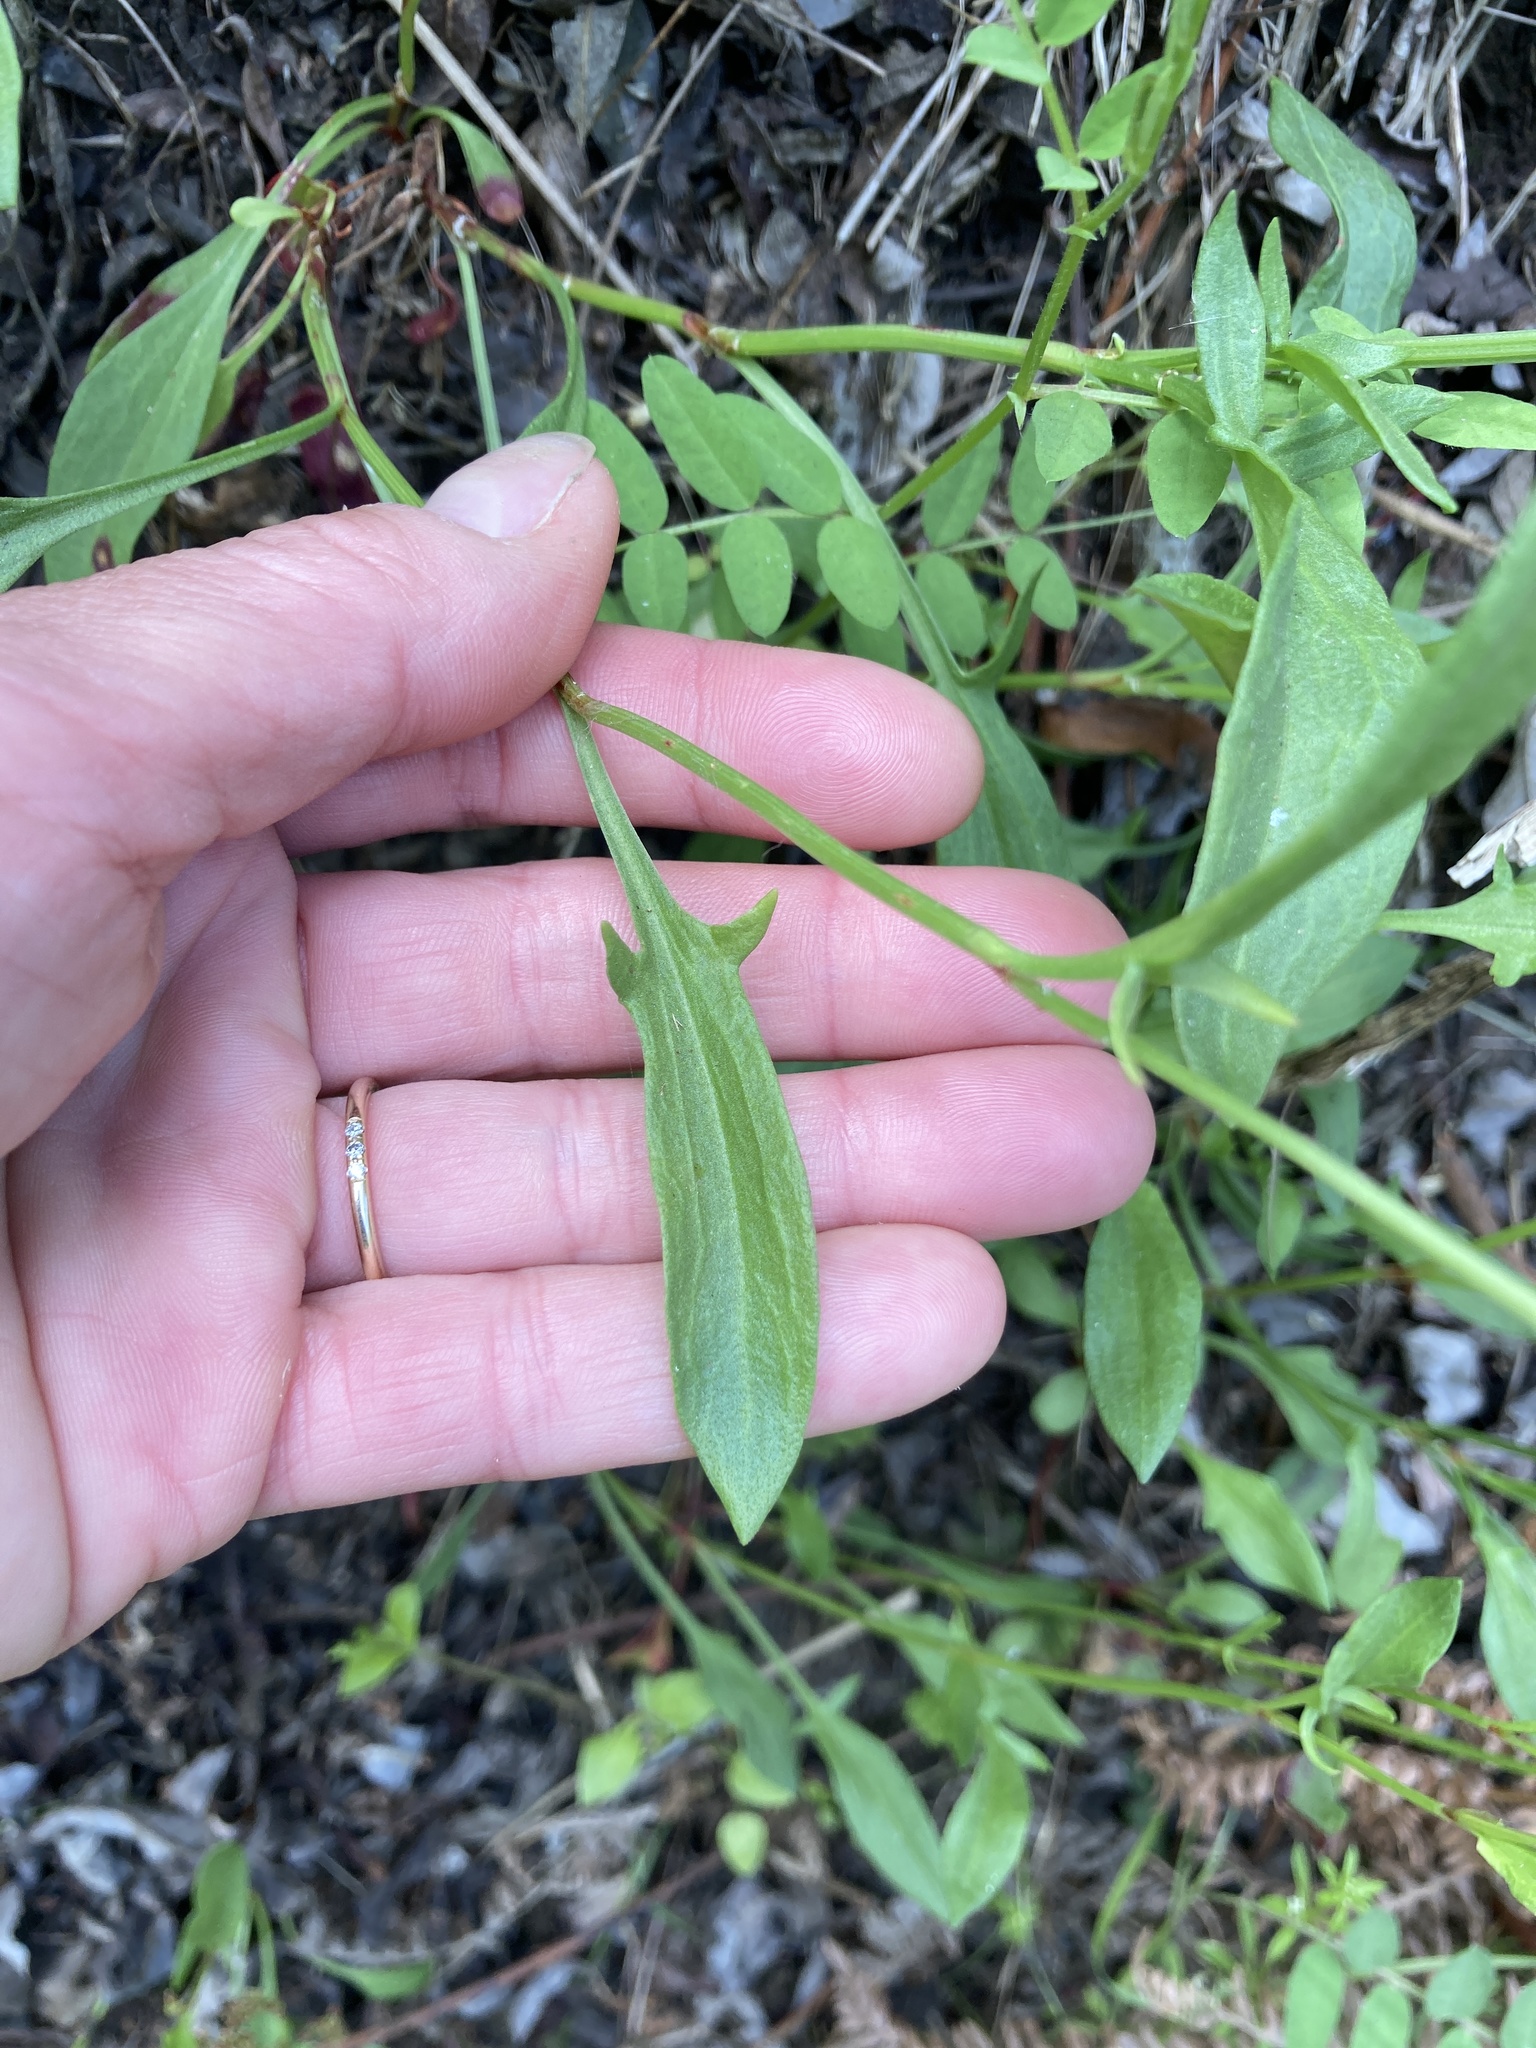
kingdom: Plantae
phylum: Tracheophyta
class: Magnoliopsida
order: Caryophyllales
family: Polygonaceae
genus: Rumex
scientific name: Rumex acetosella
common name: Common sheep sorrel
